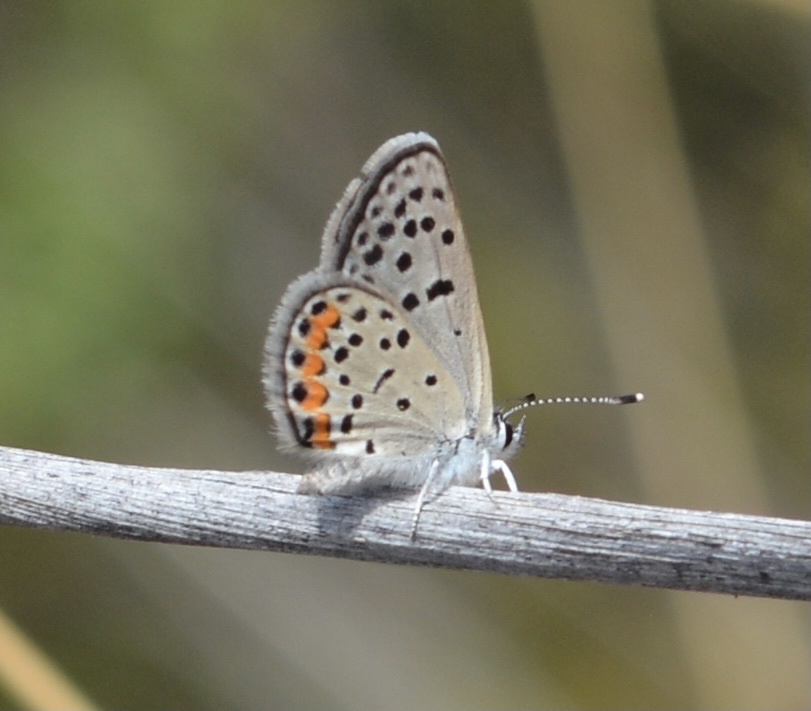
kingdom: Animalia
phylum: Arthropoda
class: Insecta
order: Lepidoptera
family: Lycaenidae
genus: Icaricia
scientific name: Icaricia acmon
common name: Acmon blue
